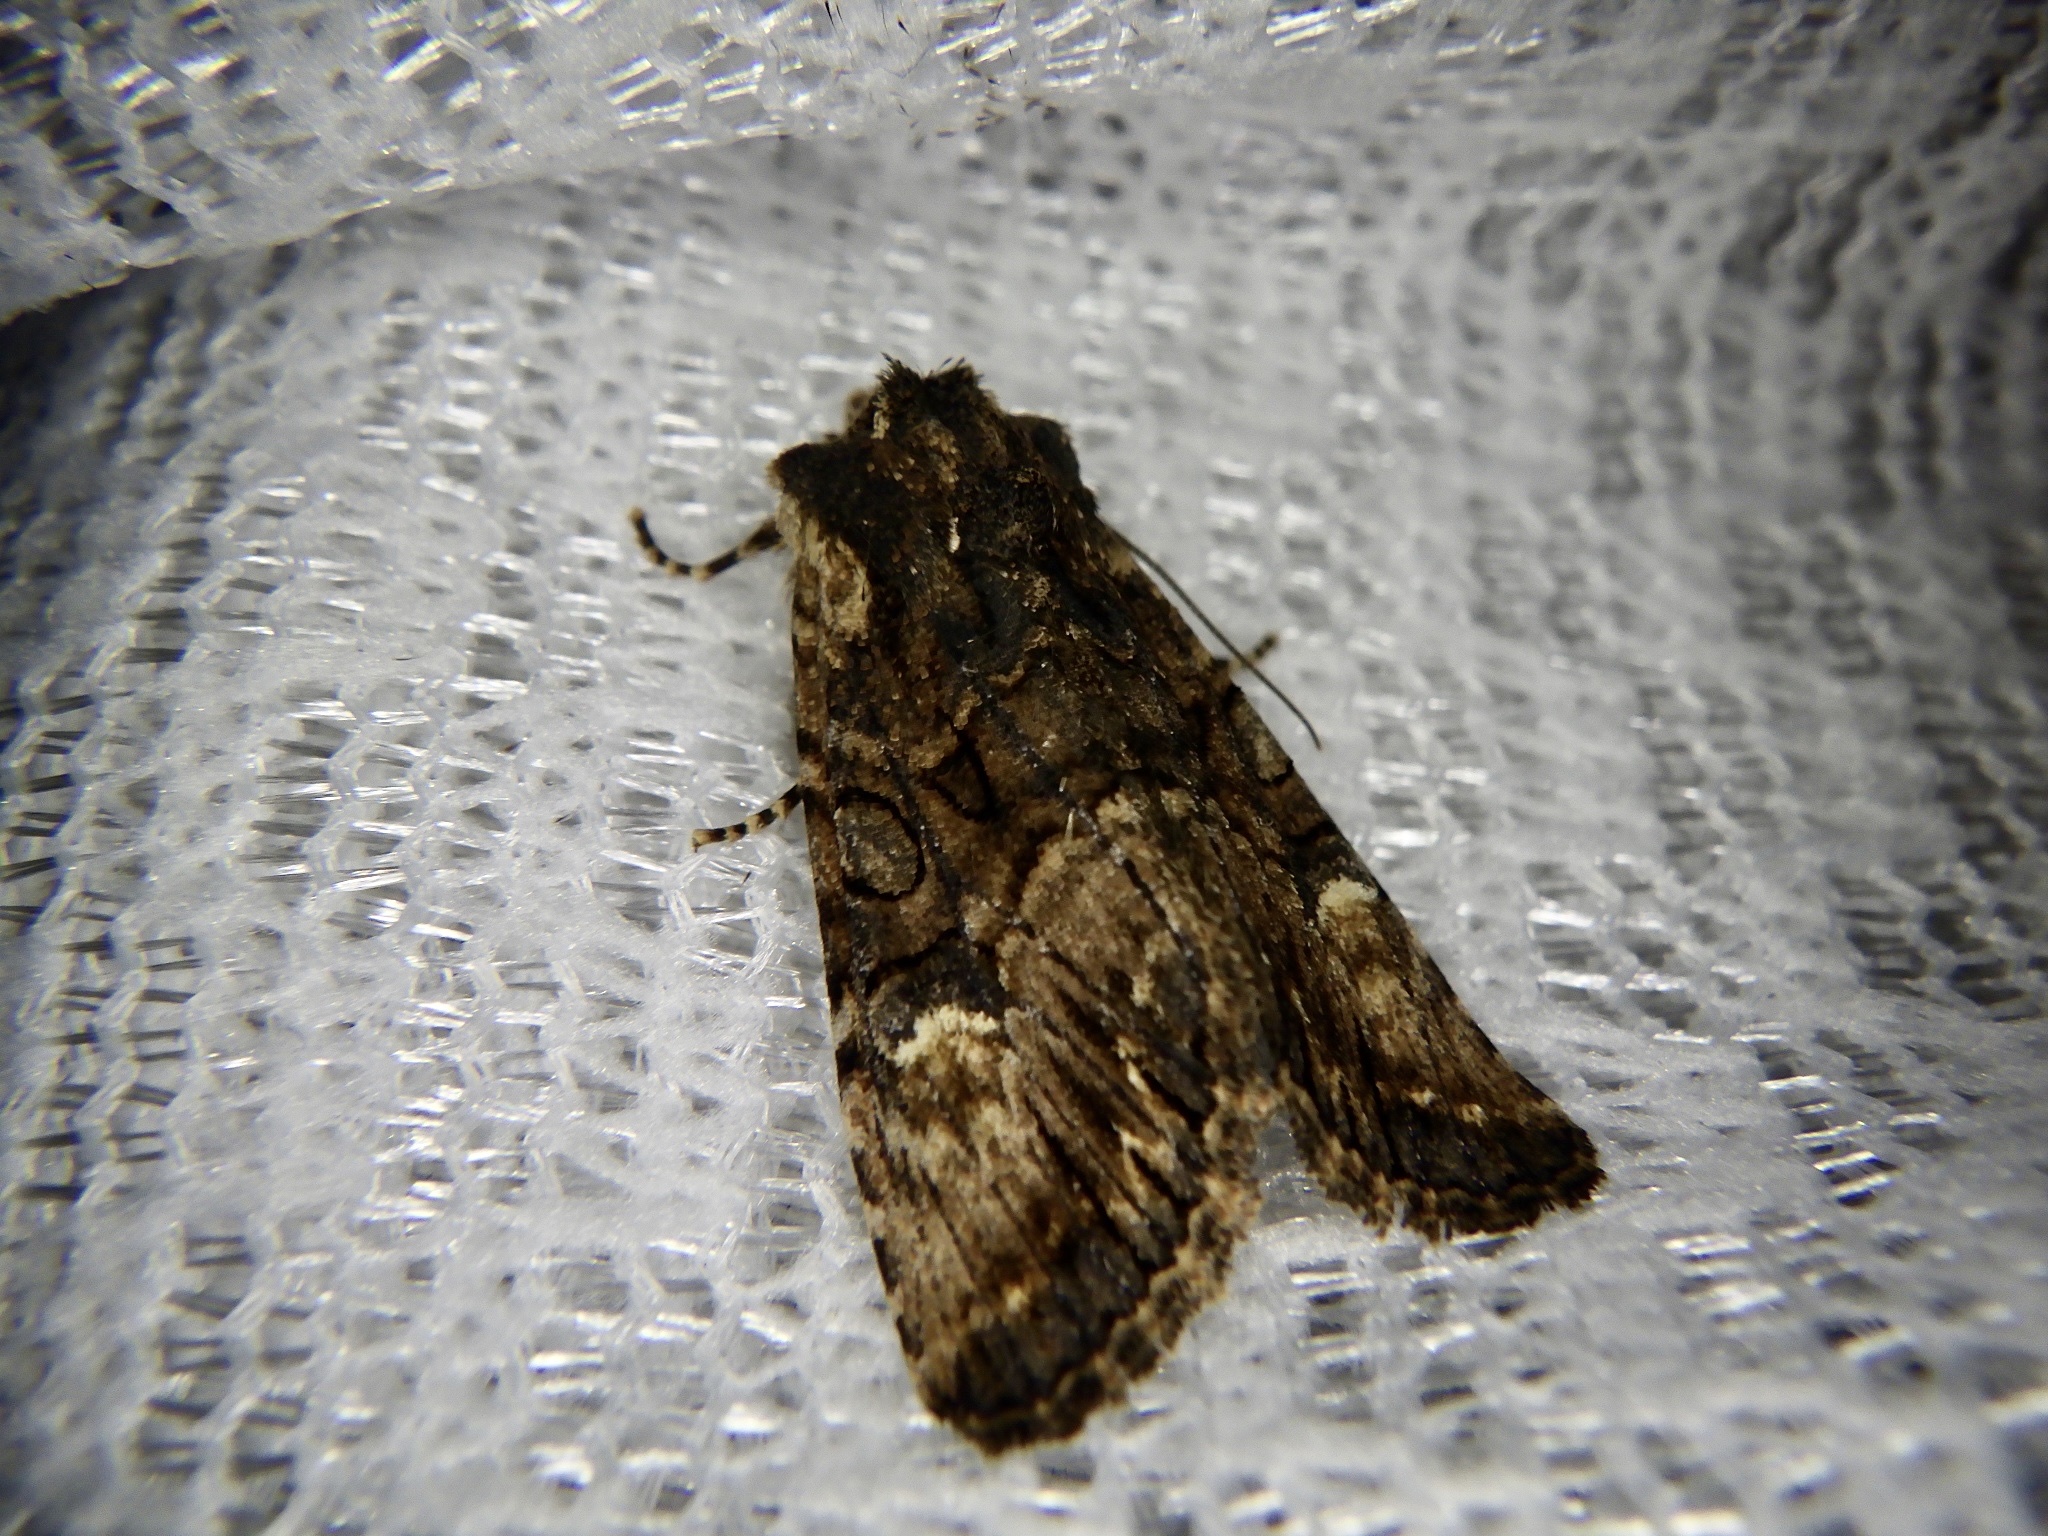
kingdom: Animalia
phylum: Arthropoda
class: Insecta
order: Lepidoptera
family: Noctuidae
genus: Nyctycia
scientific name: Nyctycia strigidisca
